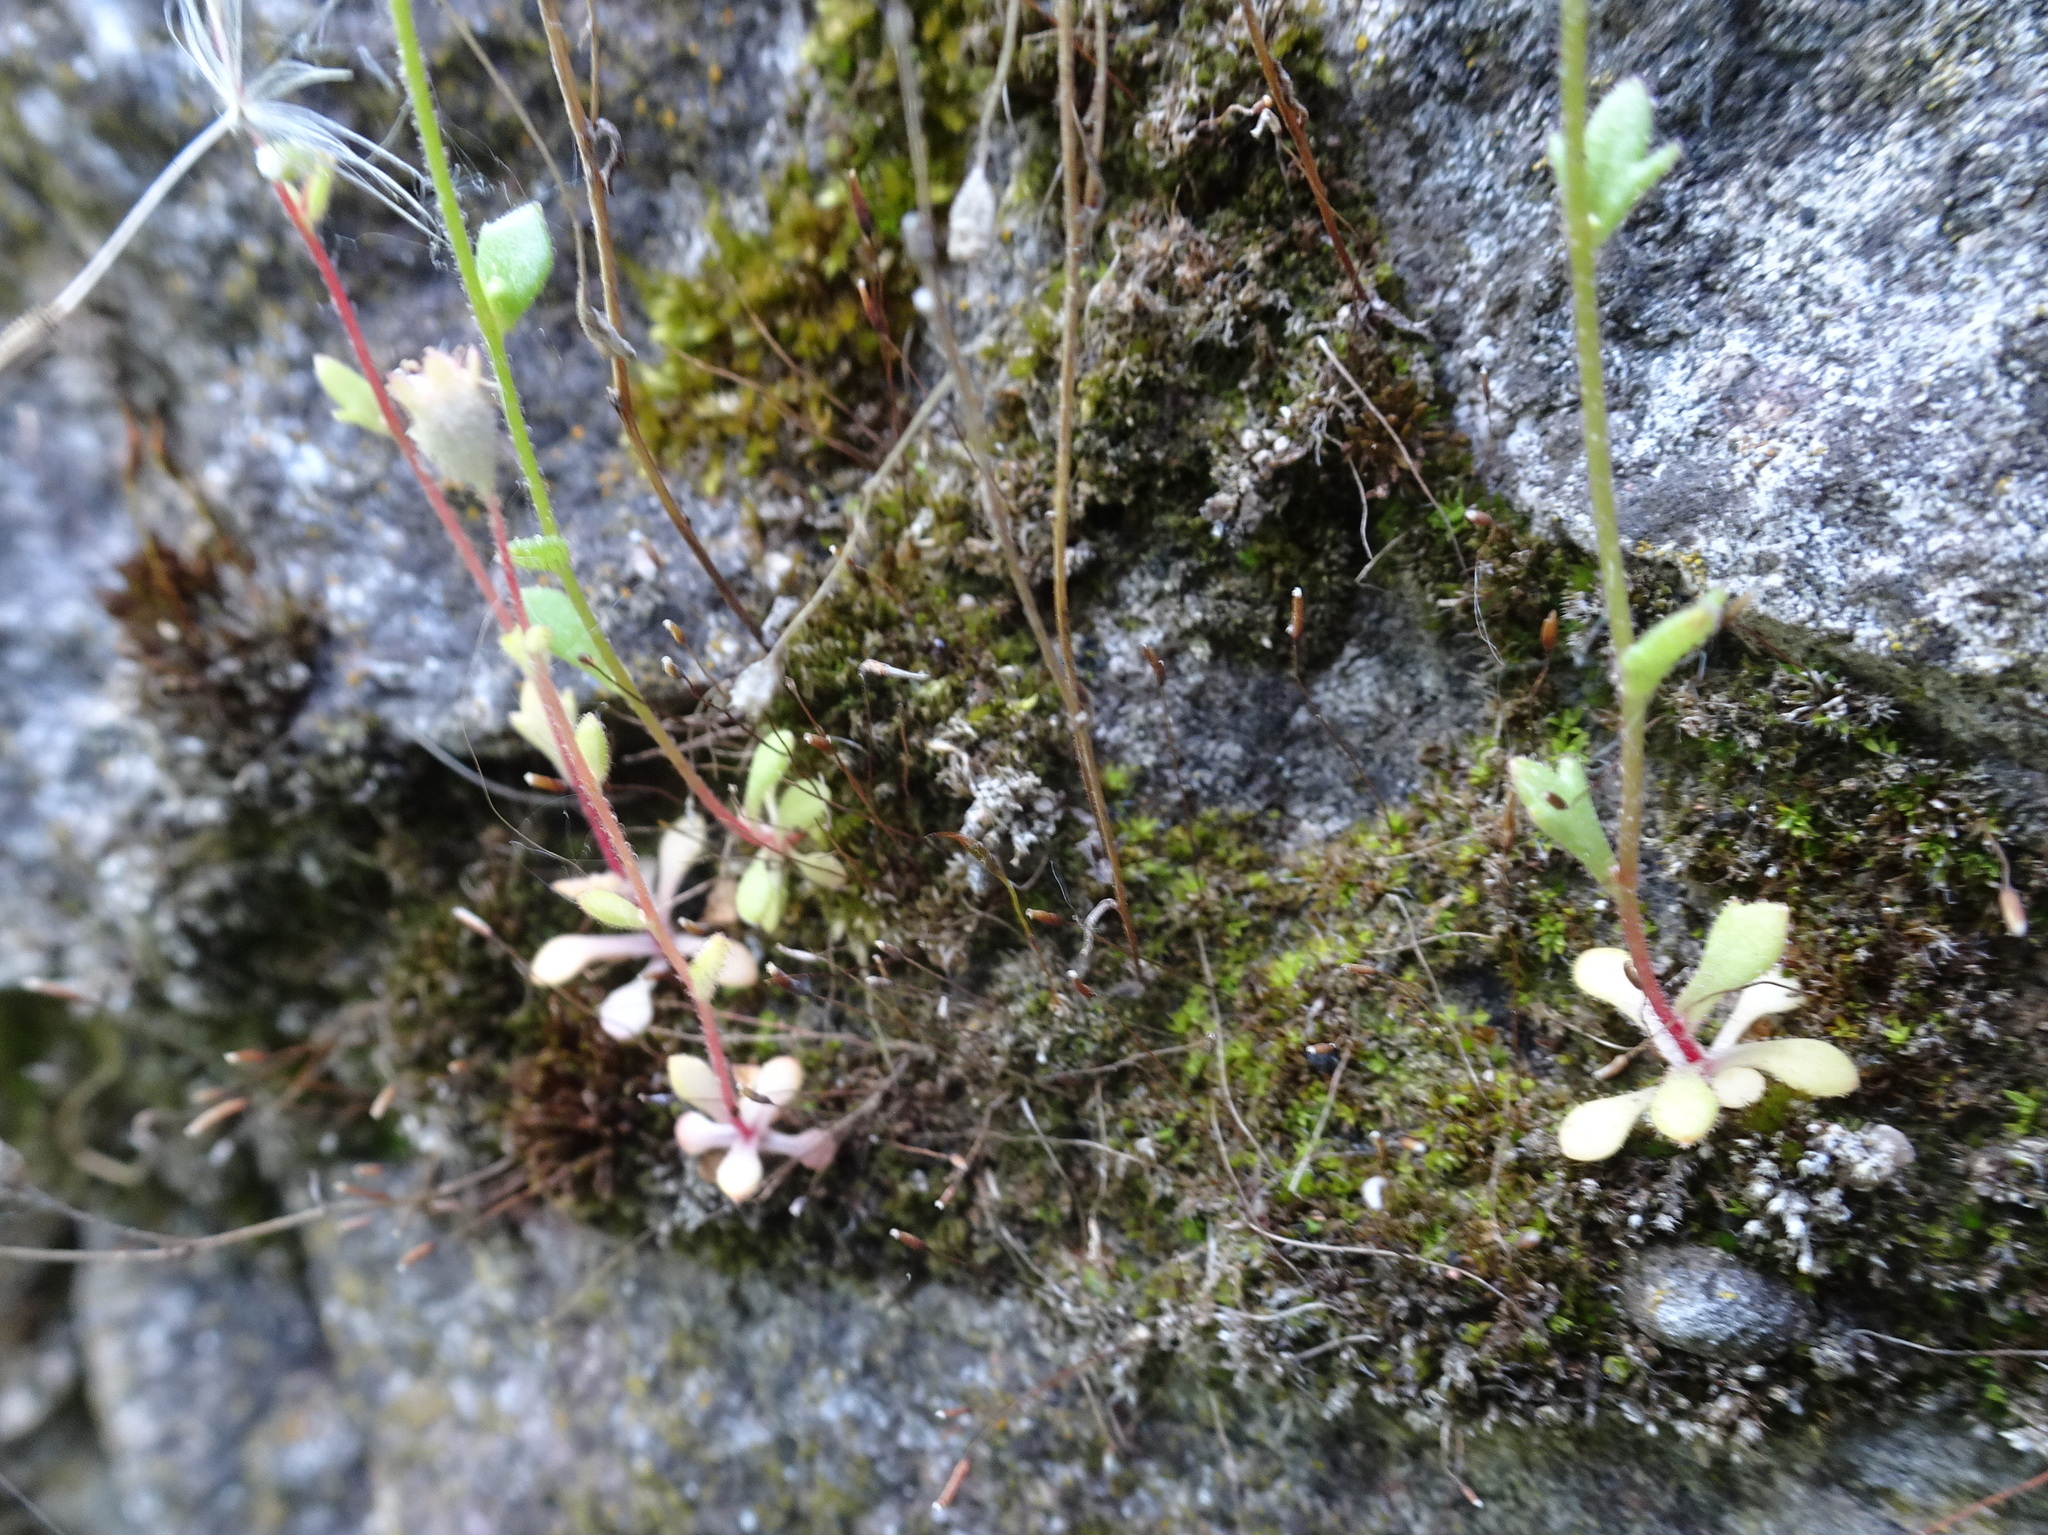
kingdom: Plantae
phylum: Tracheophyta
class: Magnoliopsida
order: Saxifragales
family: Saxifragaceae
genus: Saxifraga
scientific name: Saxifraga tridactylites
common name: Rue-leaved saxifrage
